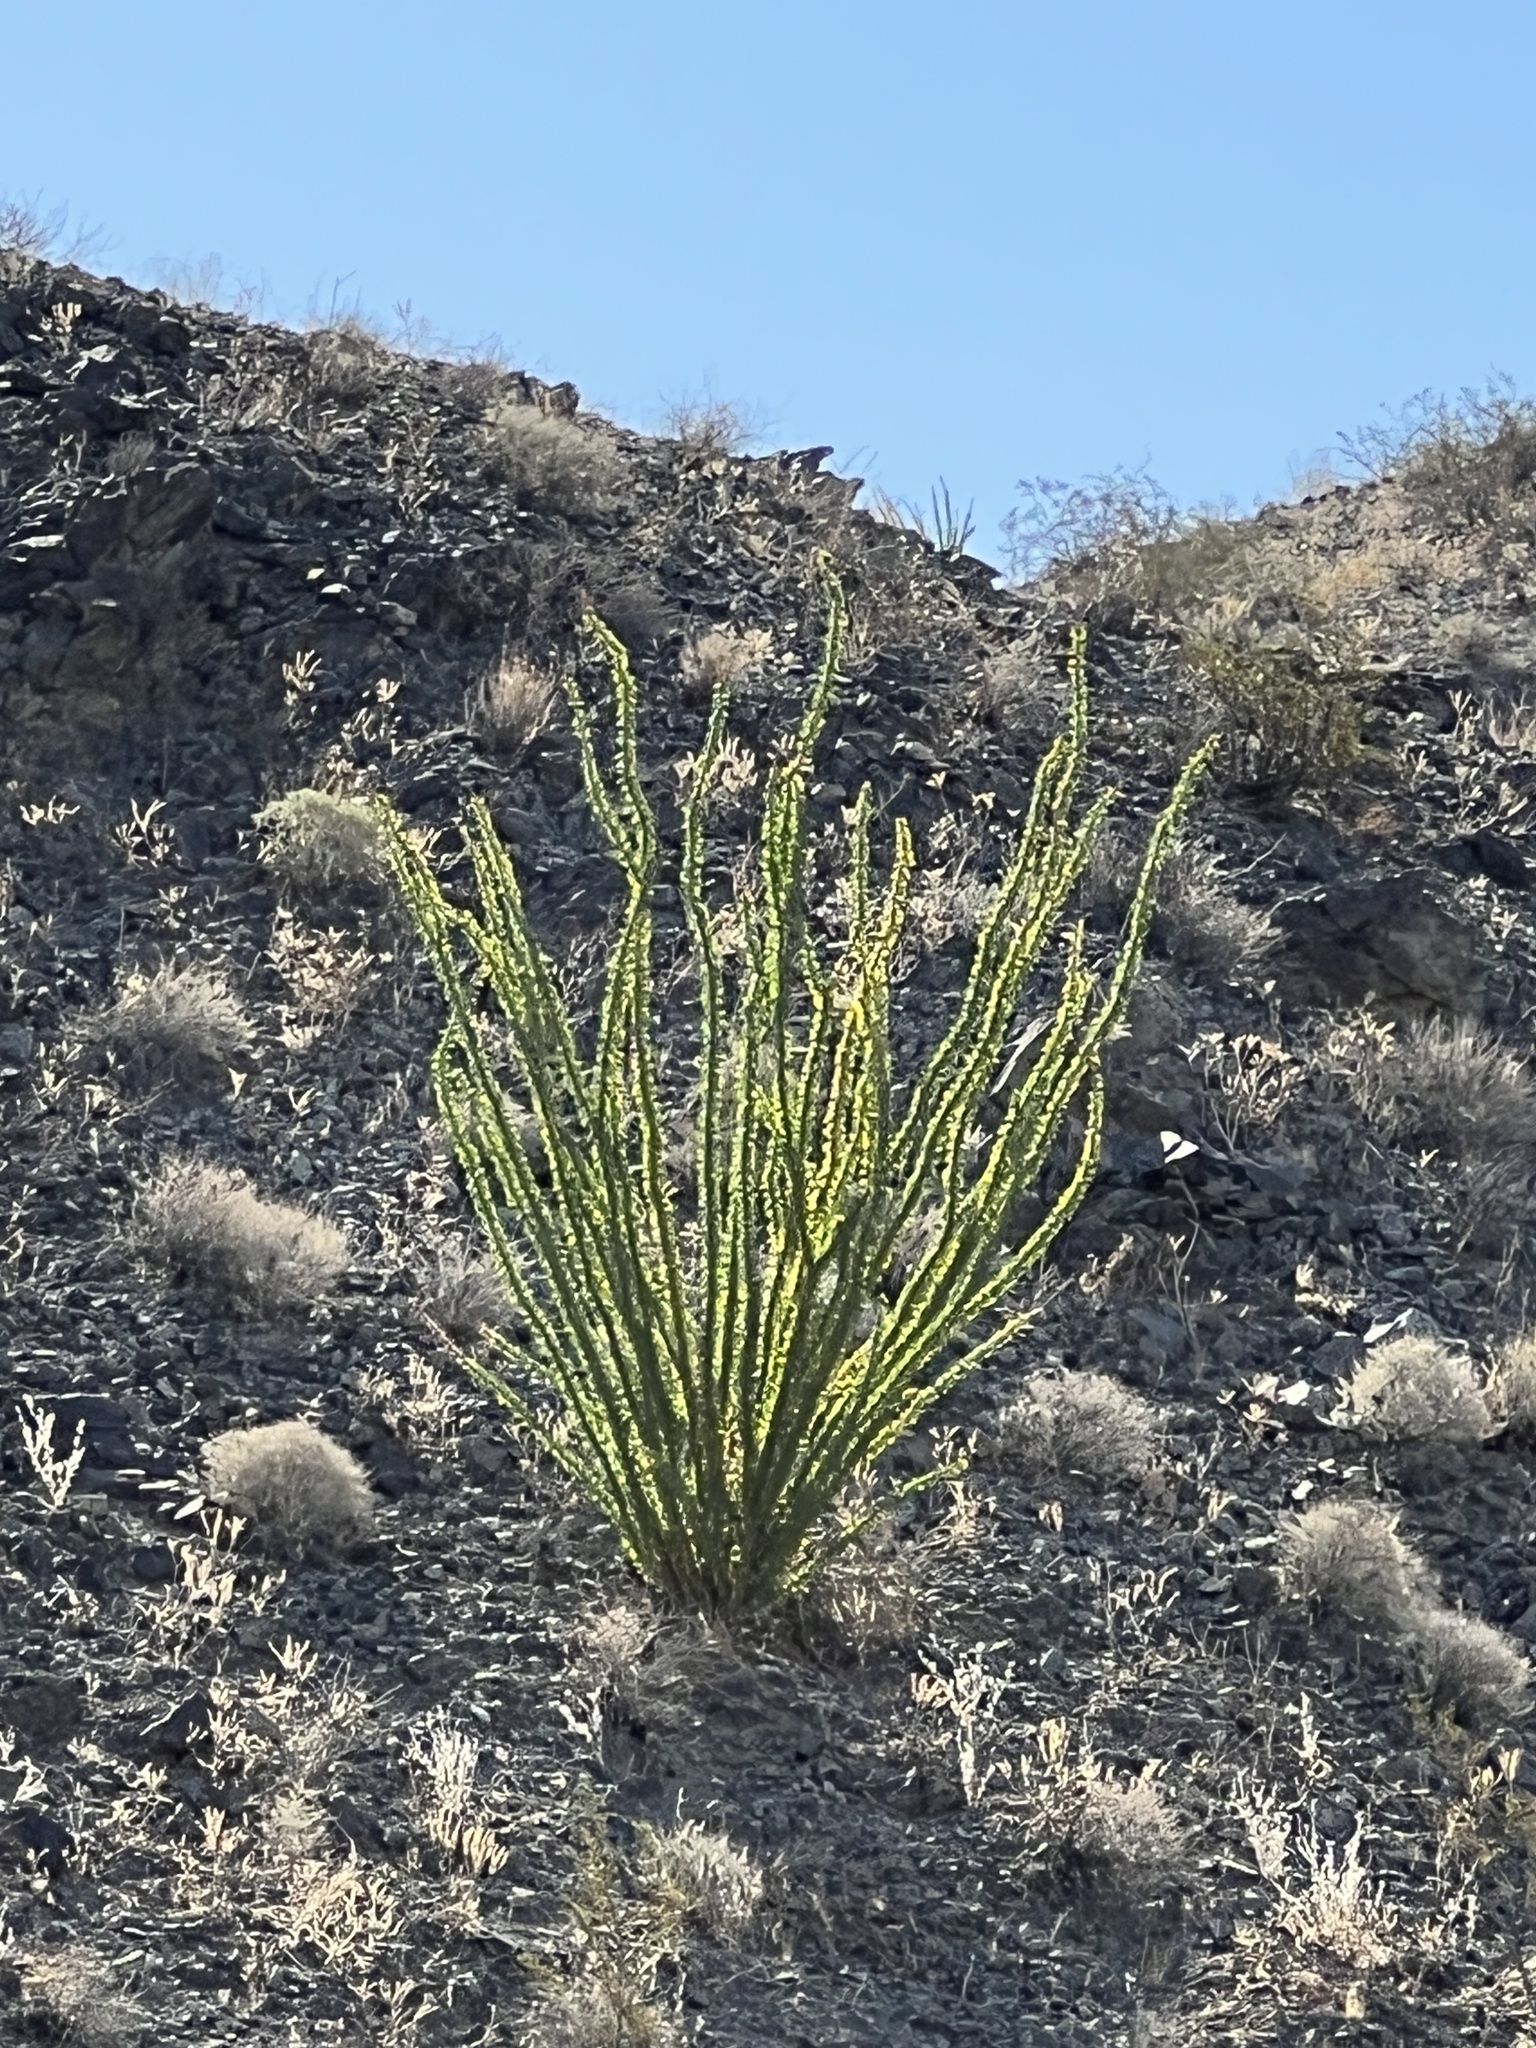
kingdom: Plantae
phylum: Tracheophyta
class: Magnoliopsida
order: Ericales
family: Fouquieriaceae
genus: Fouquieria
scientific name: Fouquieria splendens
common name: Vine-cactus
